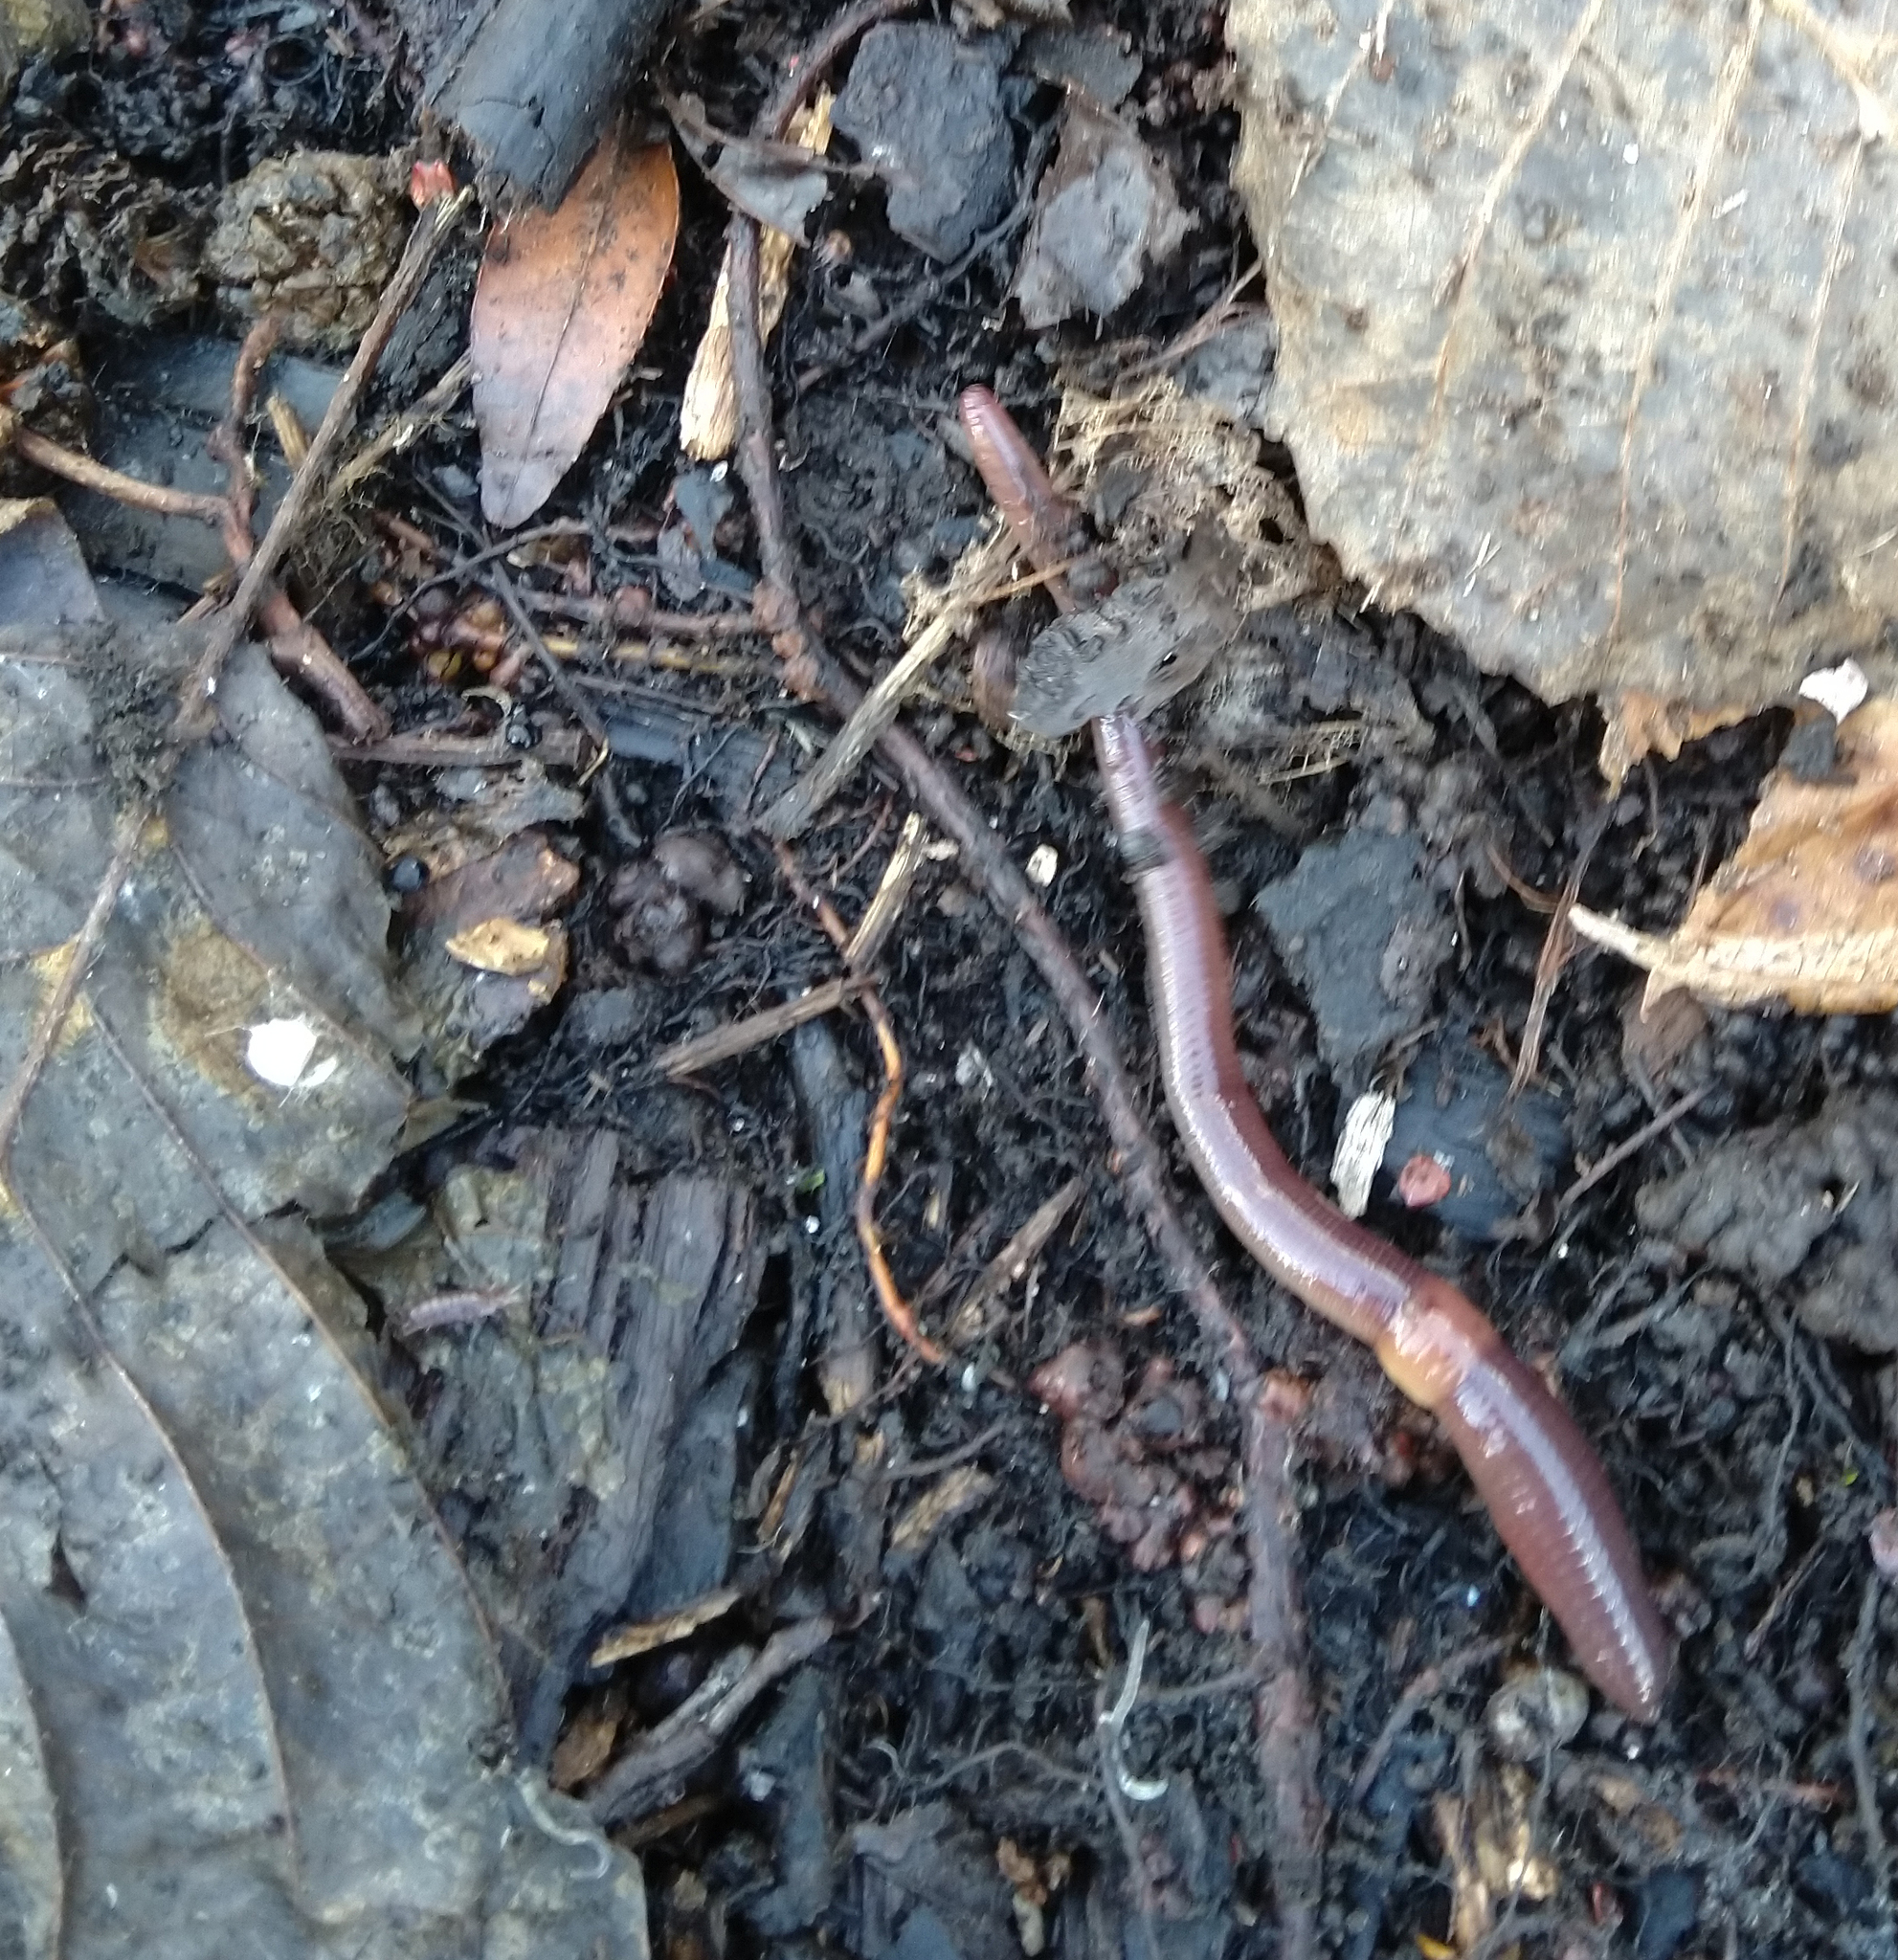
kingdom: Animalia
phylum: Annelida
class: Clitellata
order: Crassiclitellata
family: Lumbricidae
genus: Lumbricus
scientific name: Lumbricus terrestris
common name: Common earthworm
